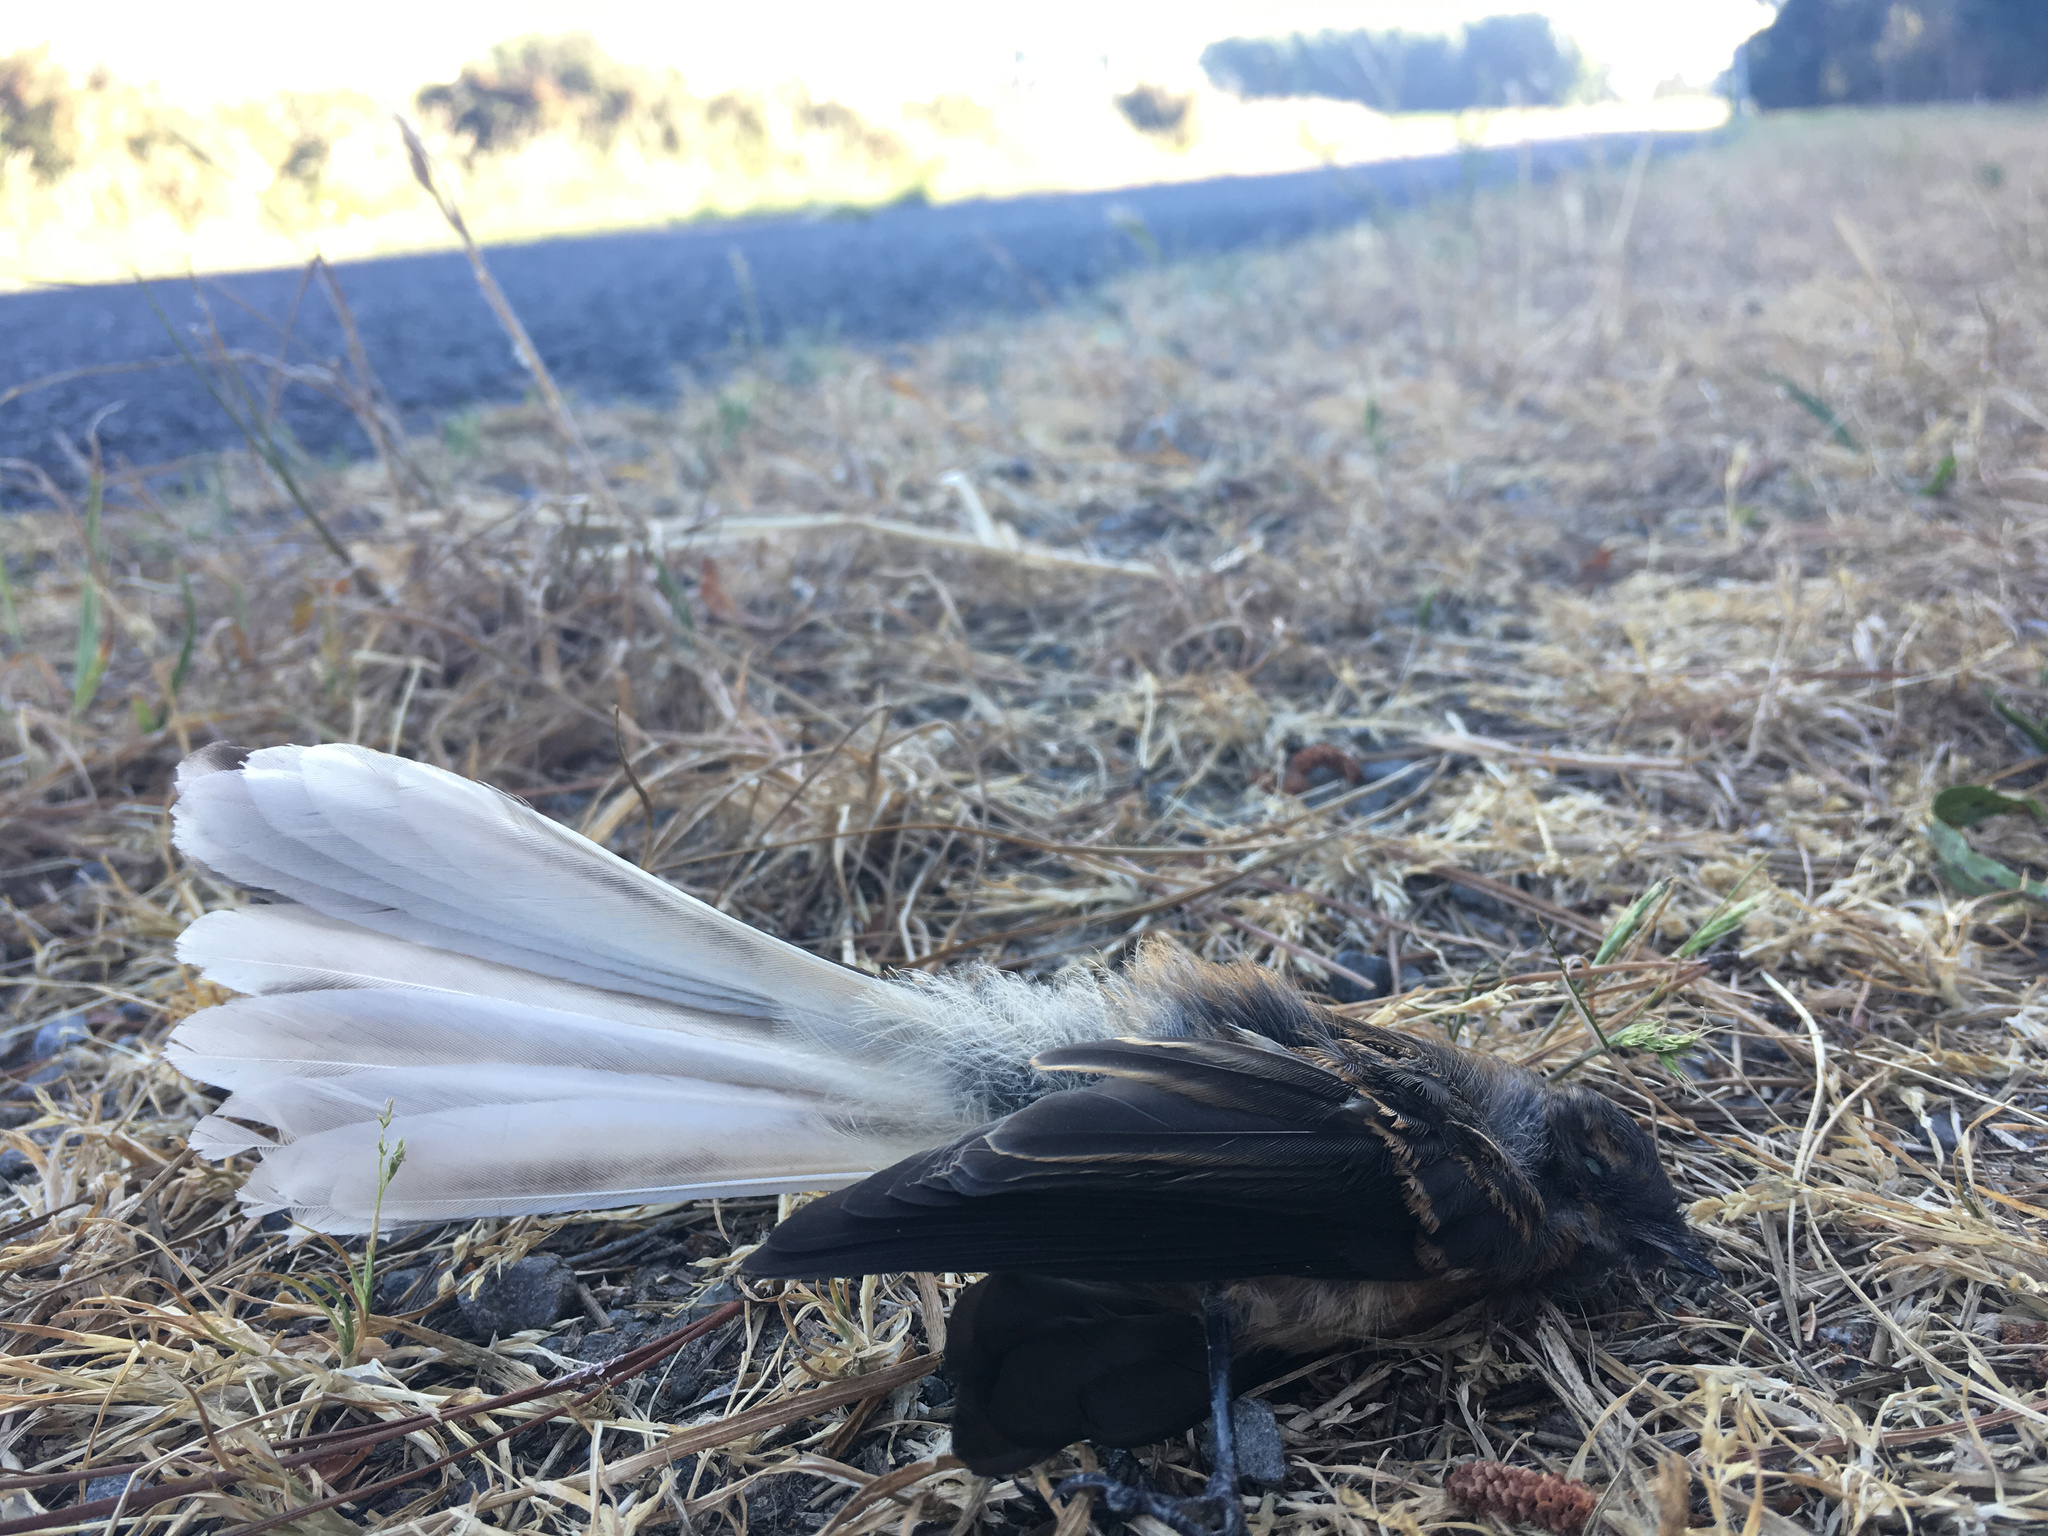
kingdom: Animalia
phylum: Chordata
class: Aves
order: Passeriformes
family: Rhipiduridae
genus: Rhipidura
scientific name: Rhipidura fuliginosa
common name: New zealand fantail
